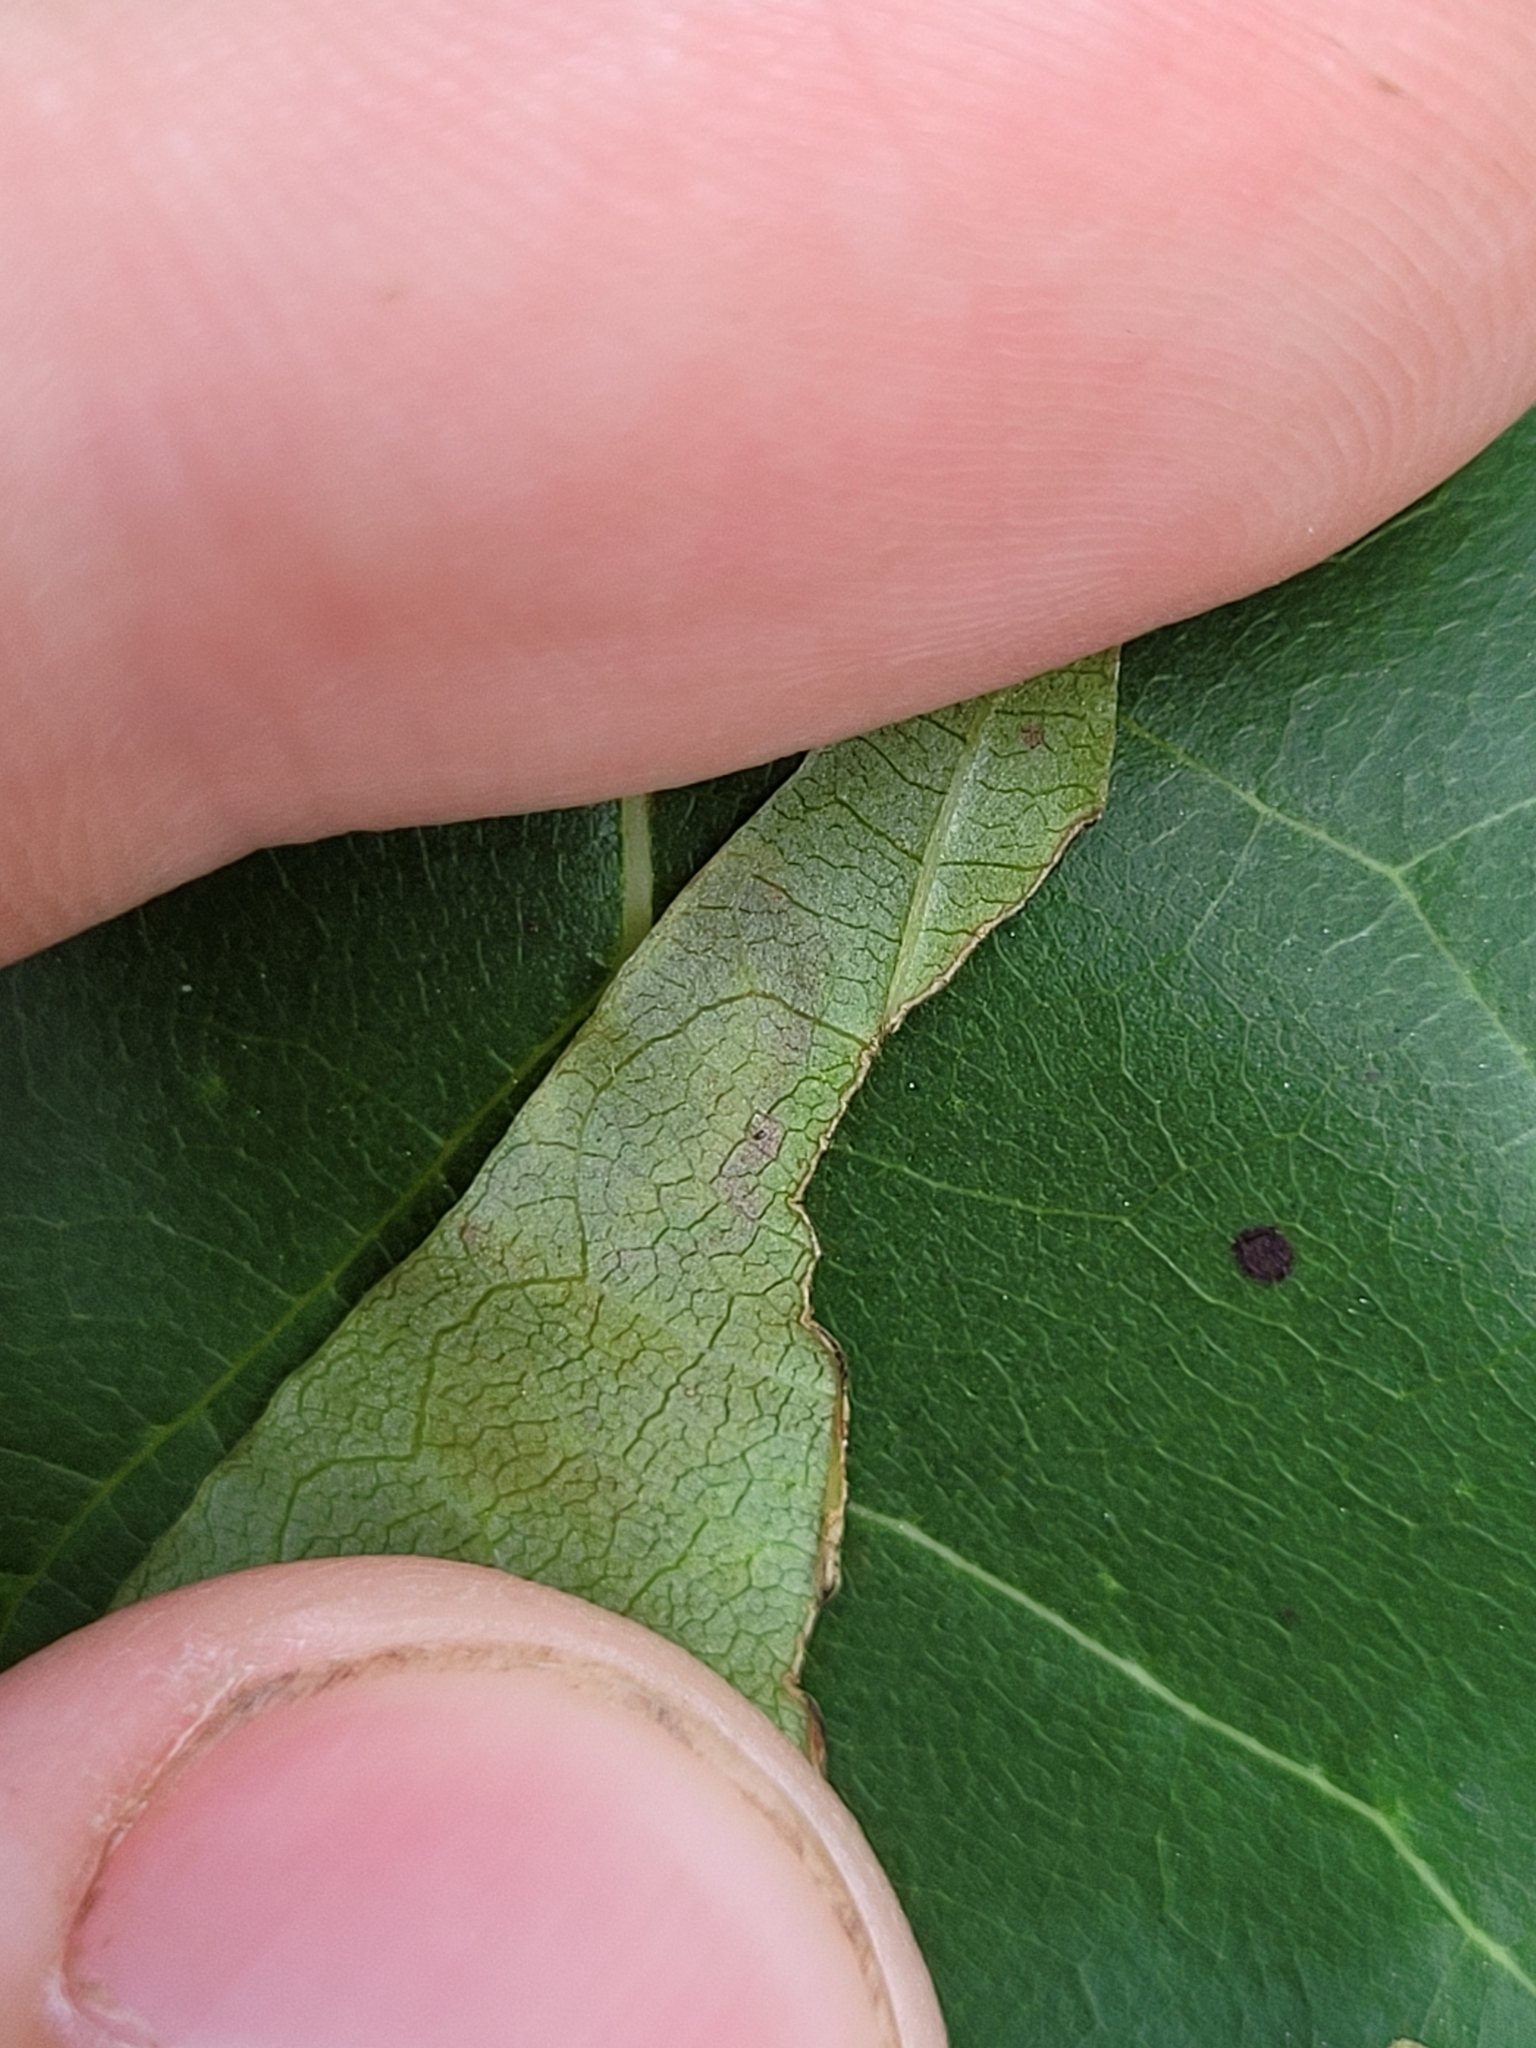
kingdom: Animalia
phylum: Arthropoda
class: Insecta
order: Lepidoptera
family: Nepticulidae
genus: Ectoedemia
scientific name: Ectoedemia nyssaefoliella
